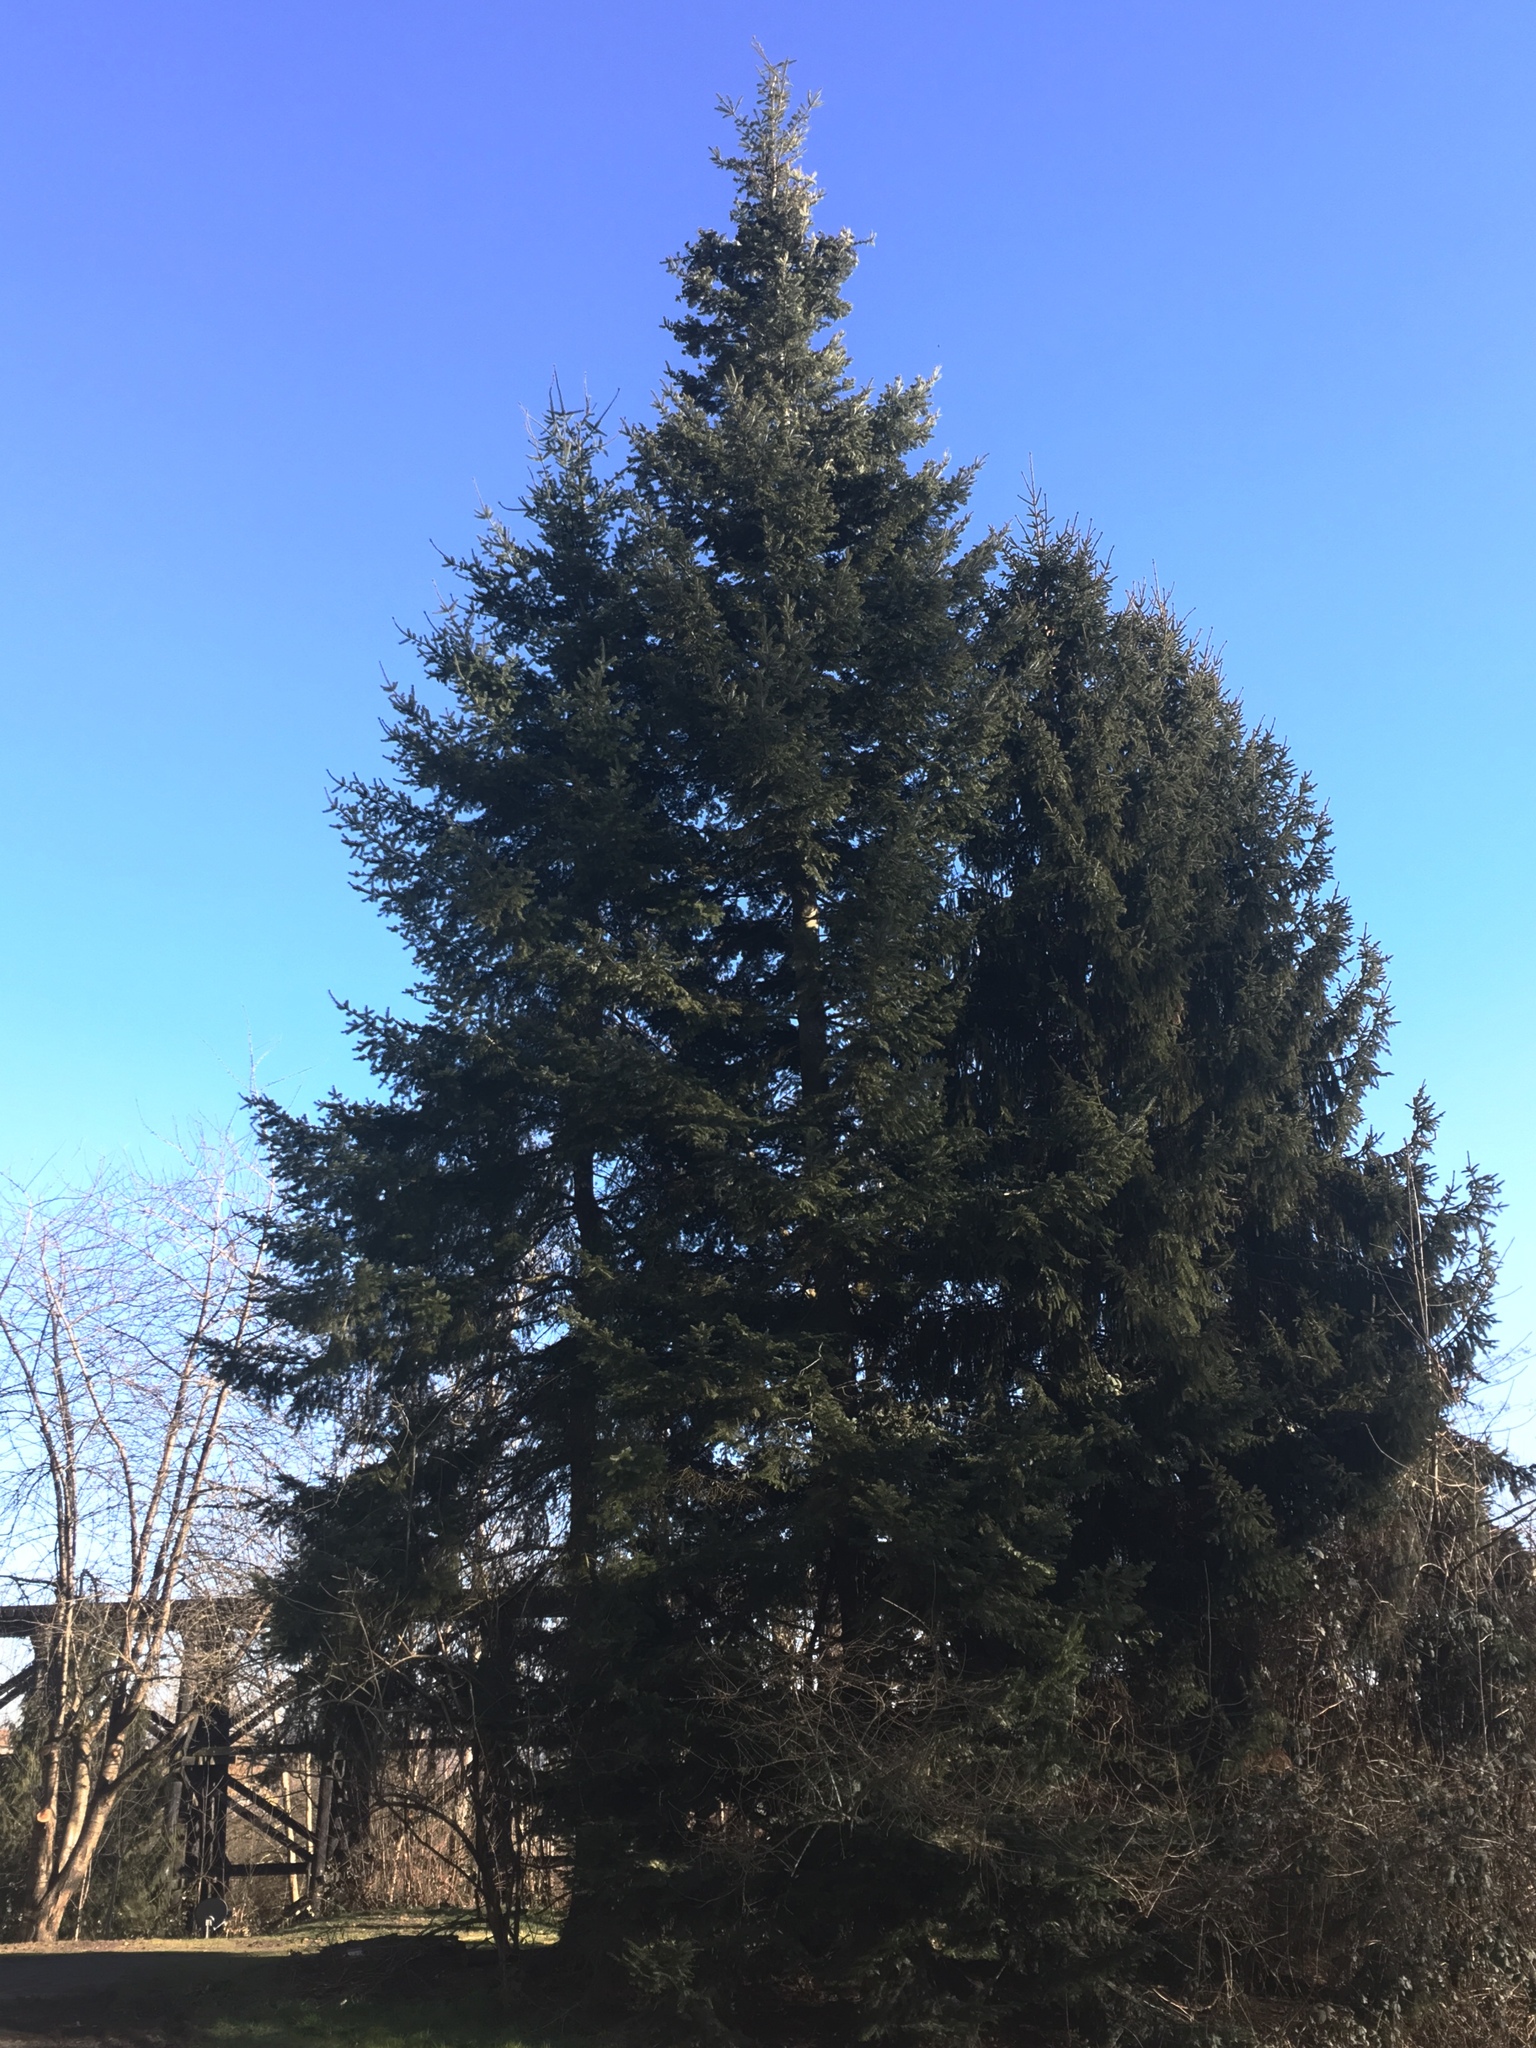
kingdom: Plantae
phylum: Tracheophyta
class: Pinopsida
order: Pinales
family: Pinaceae
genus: Abies
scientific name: Abies grandis
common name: Giant fir
